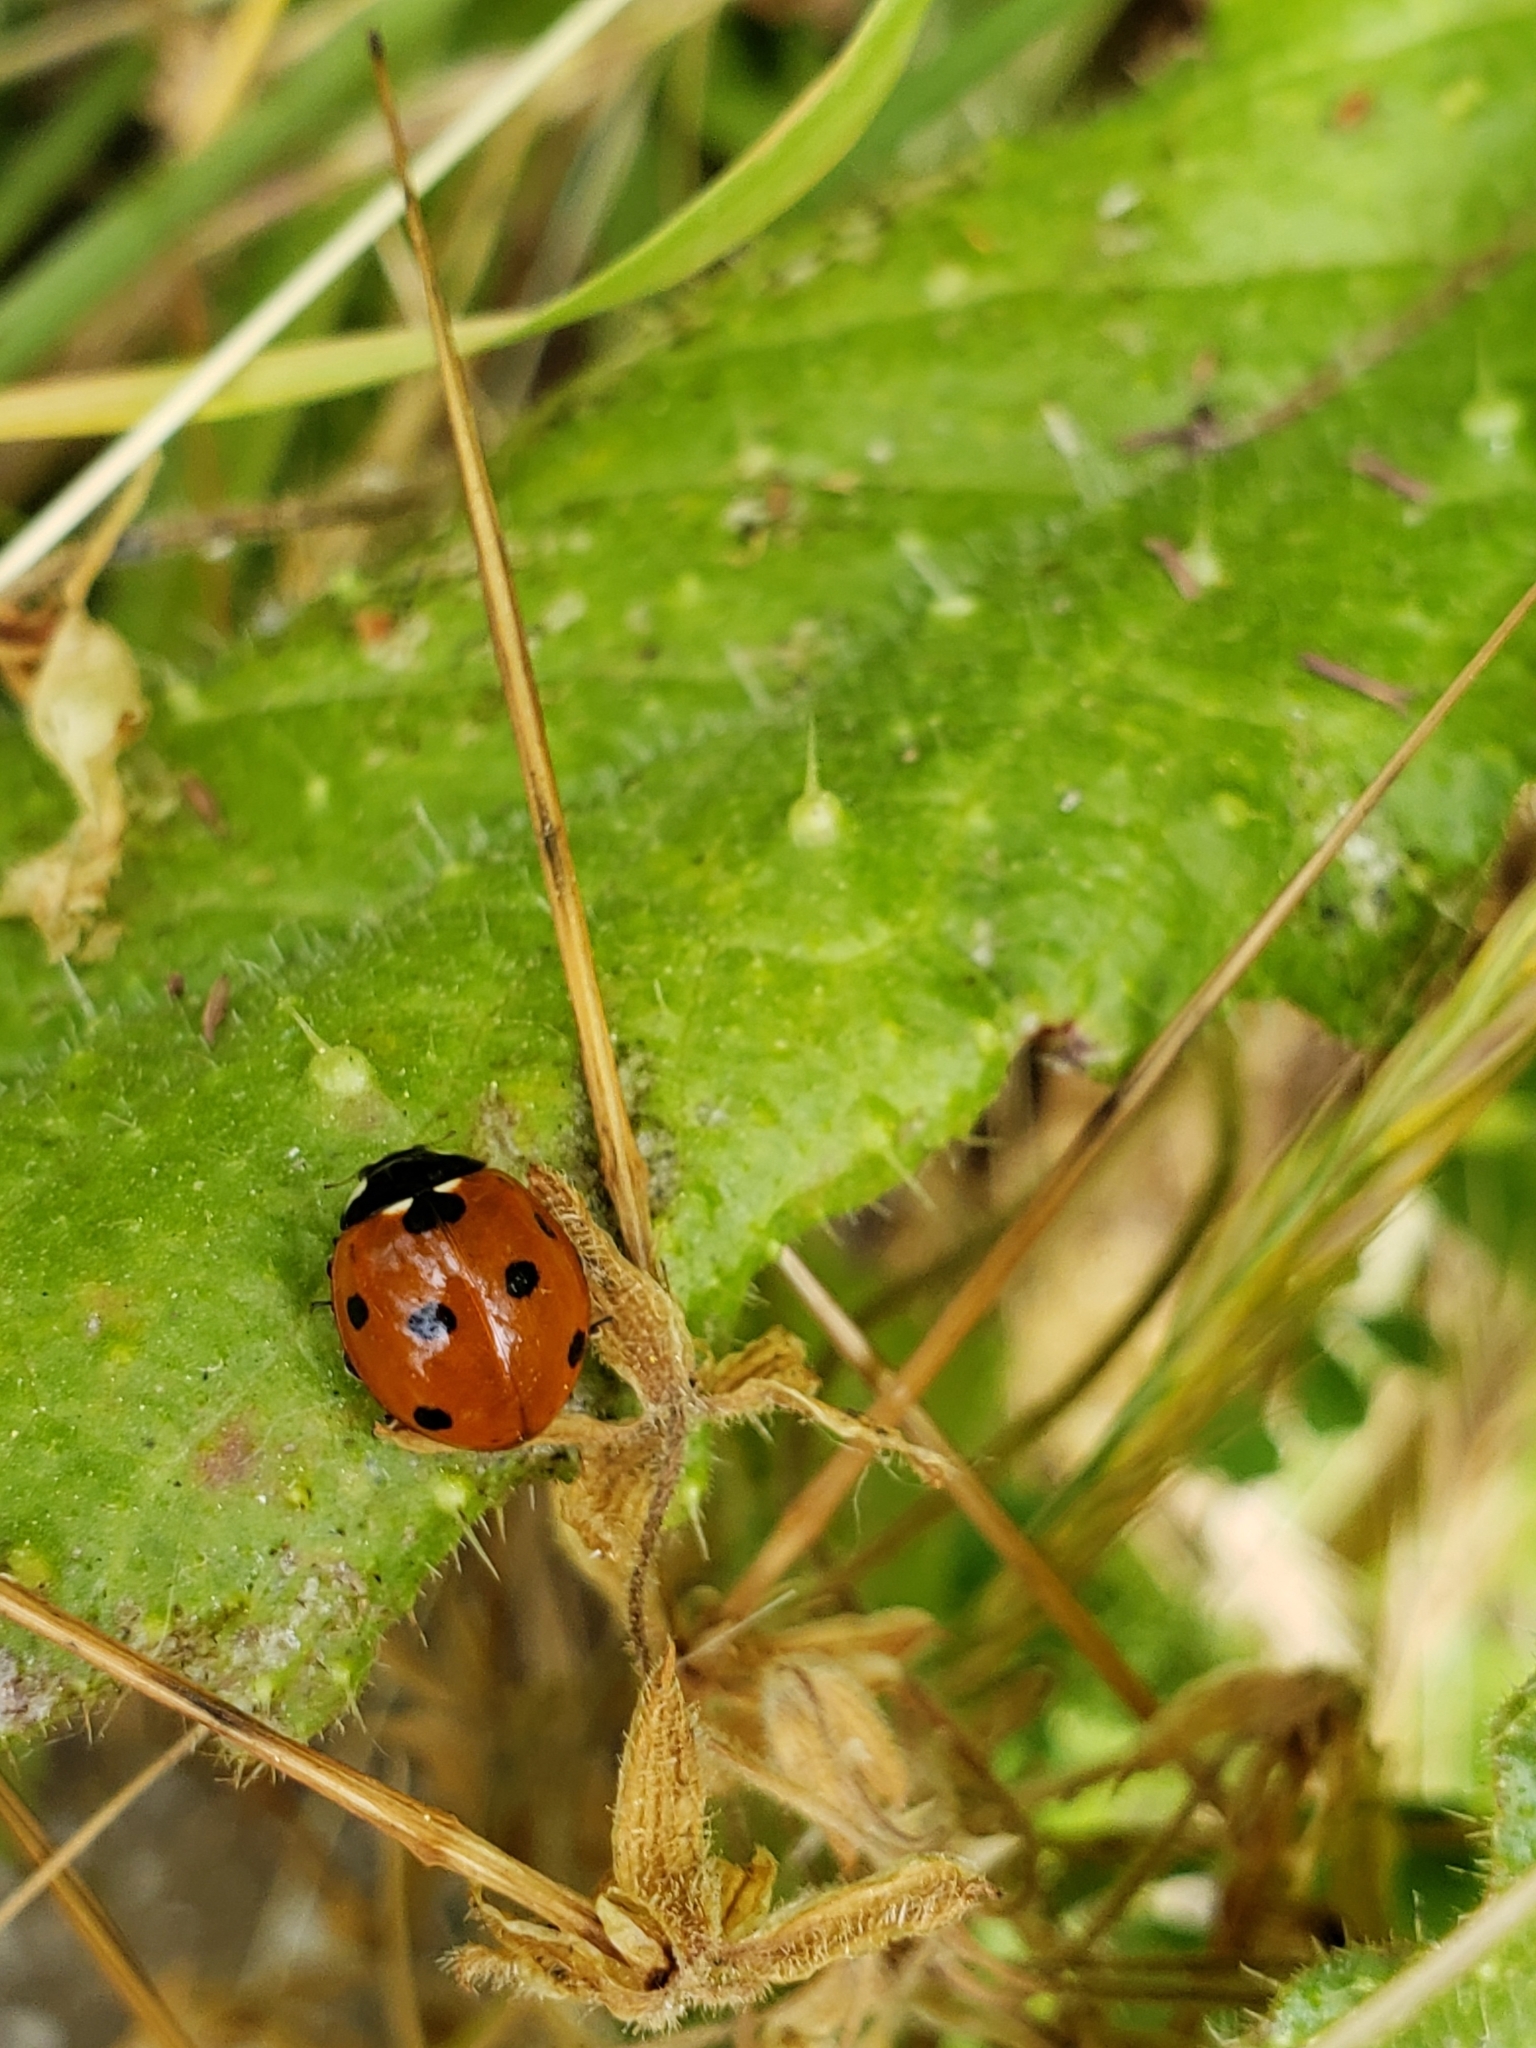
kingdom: Animalia
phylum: Arthropoda
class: Insecta
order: Coleoptera
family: Coccinellidae
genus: Coccinella
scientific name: Coccinella septempunctata
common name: Sevenspotted lady beetle
